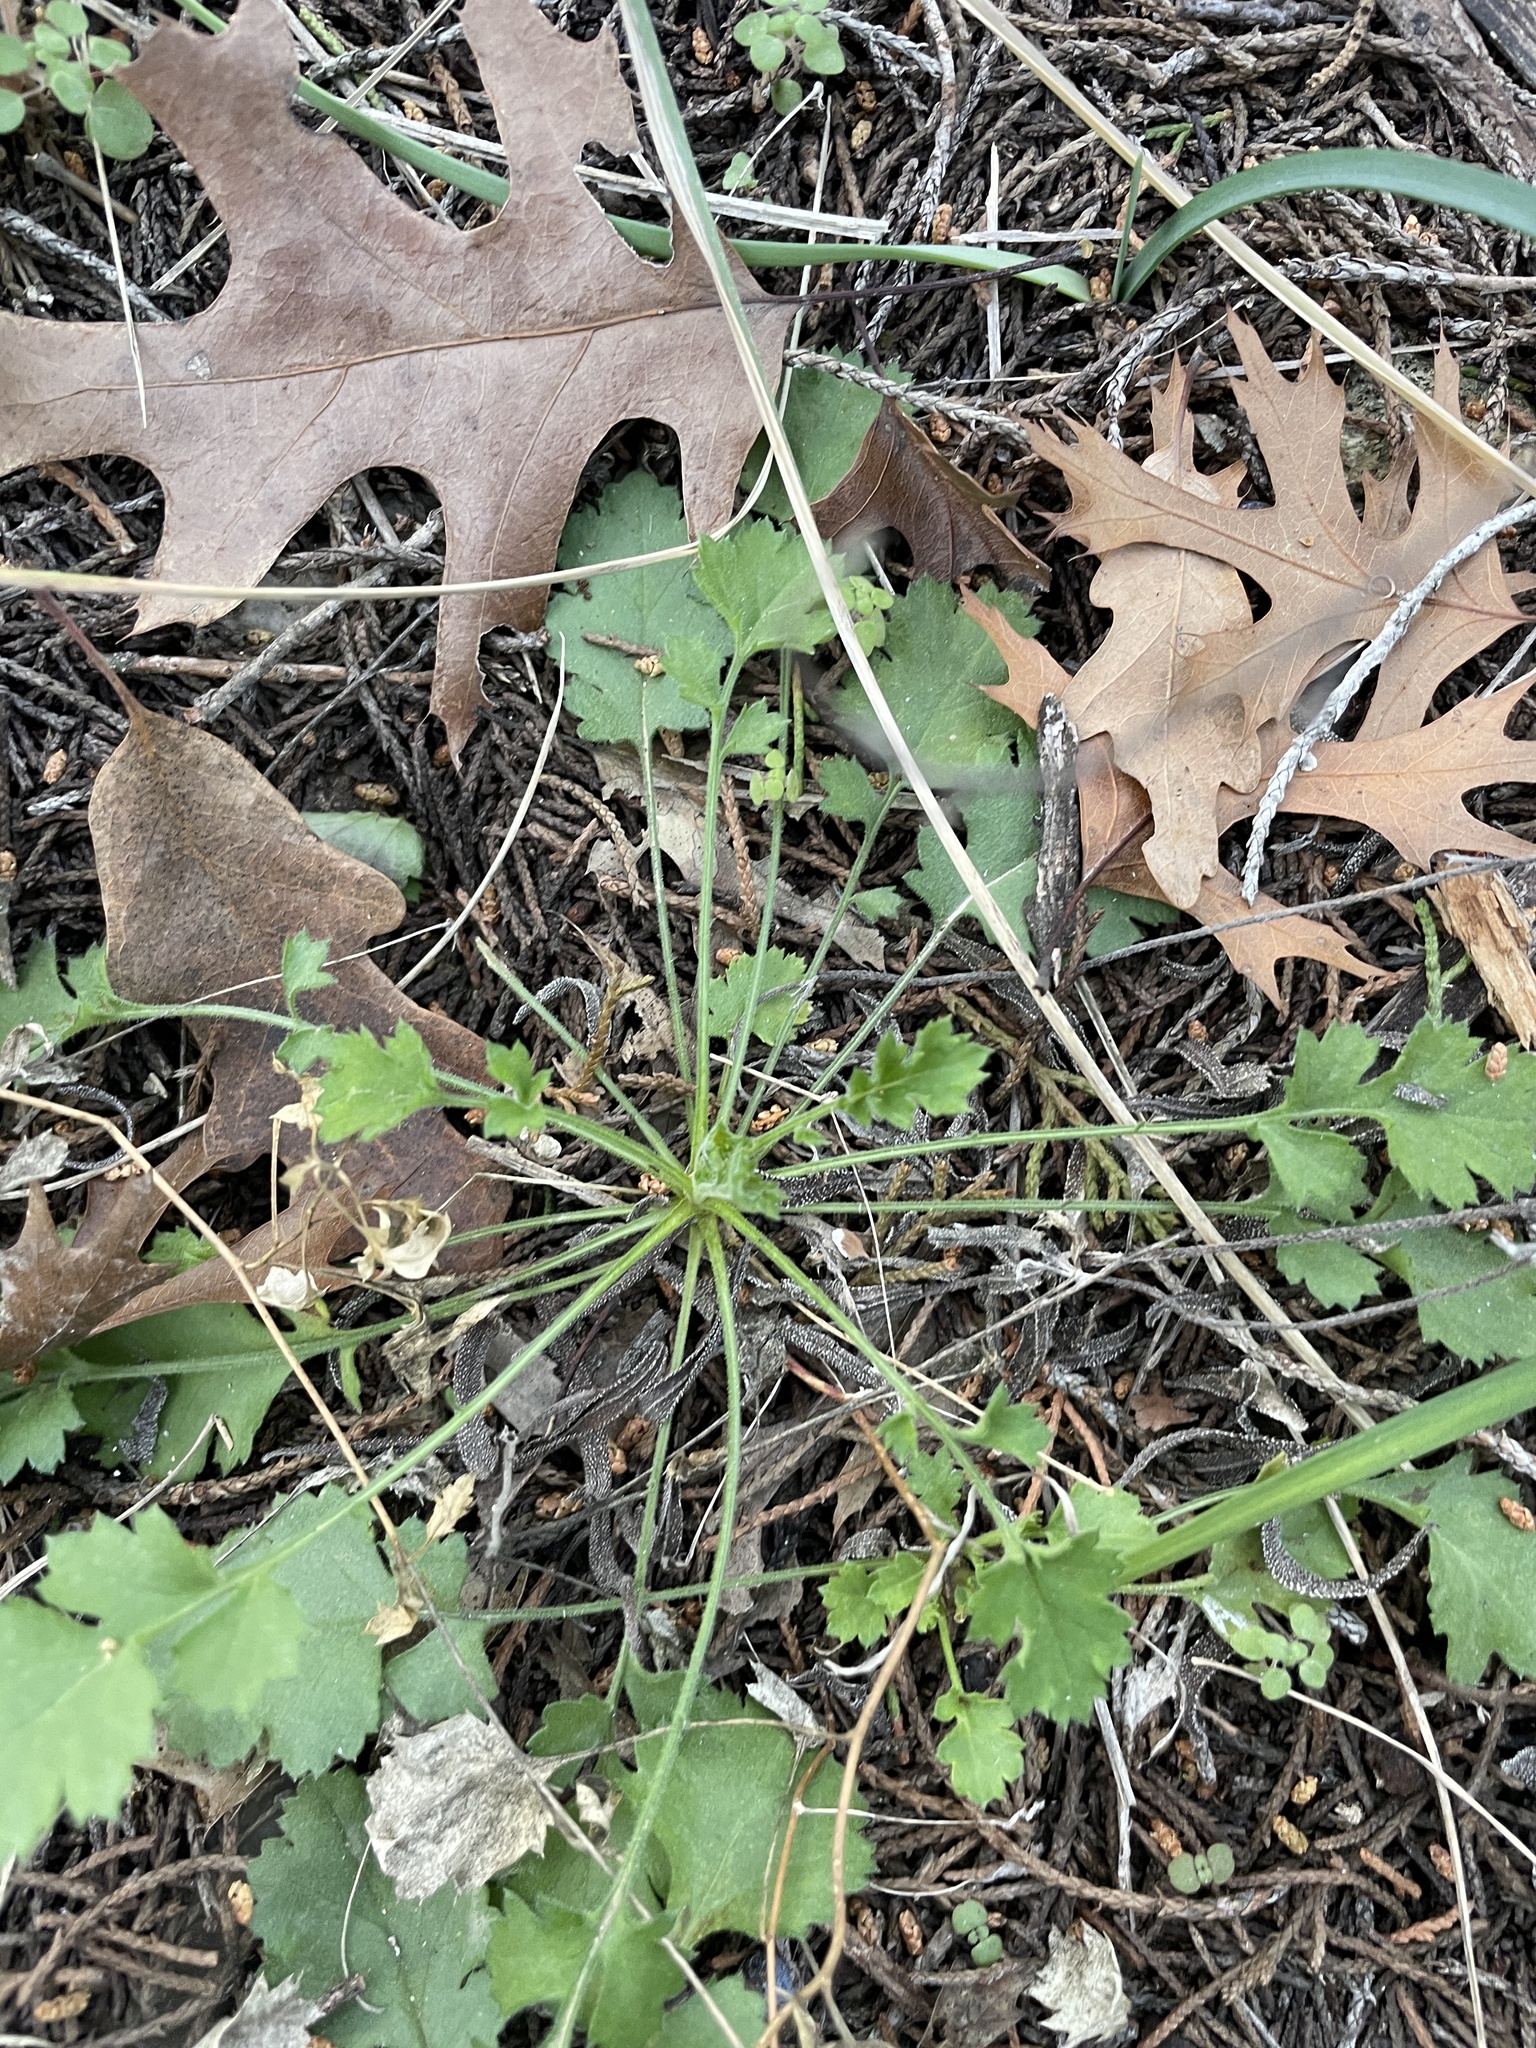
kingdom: Plantae
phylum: Tracheophyta
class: Magnoliopsida
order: Ericales
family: Polemoniaceae
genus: Giliastrum
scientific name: Giliastrum incisum
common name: Splitleaf gilia
